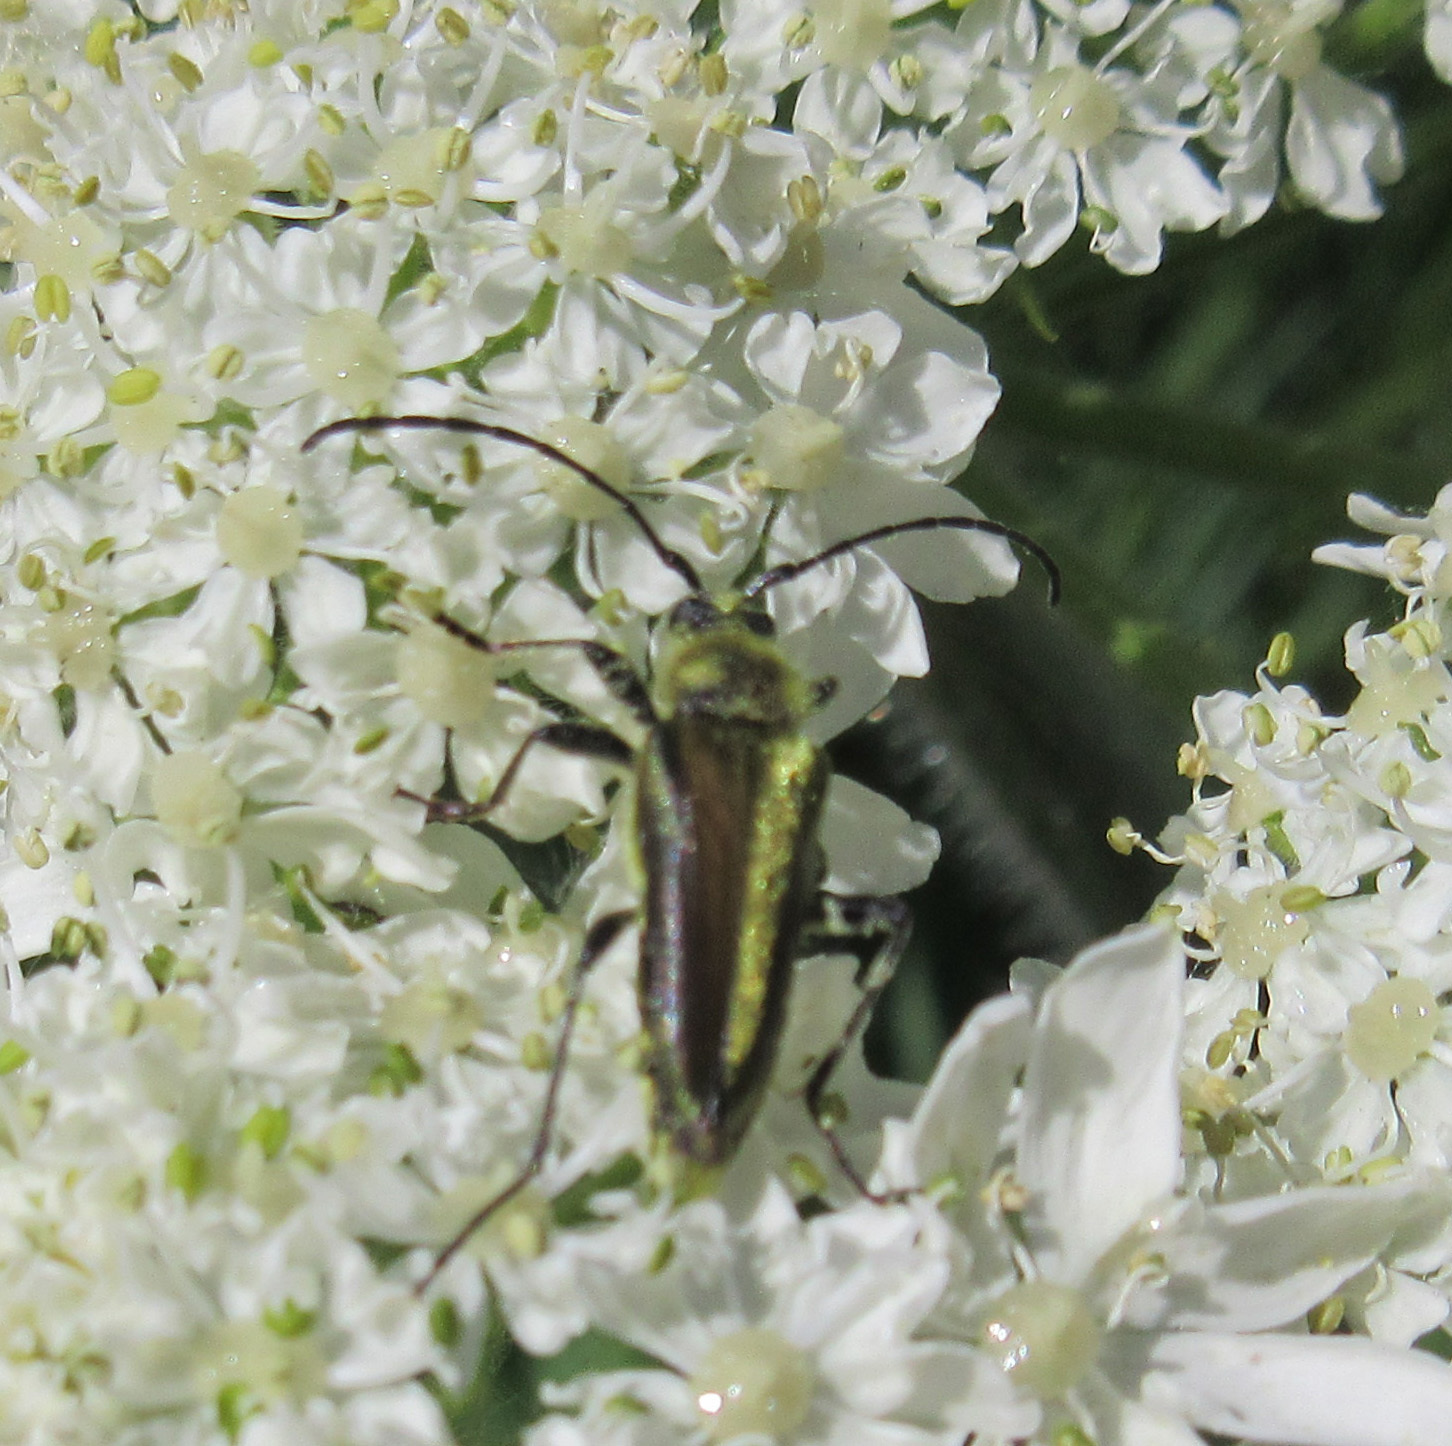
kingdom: Animalia
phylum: Arthropoda
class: Insecta
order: Coleoptera
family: Cerambycidae
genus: Cosmosalia
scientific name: Cosmosalia chrysocoma
